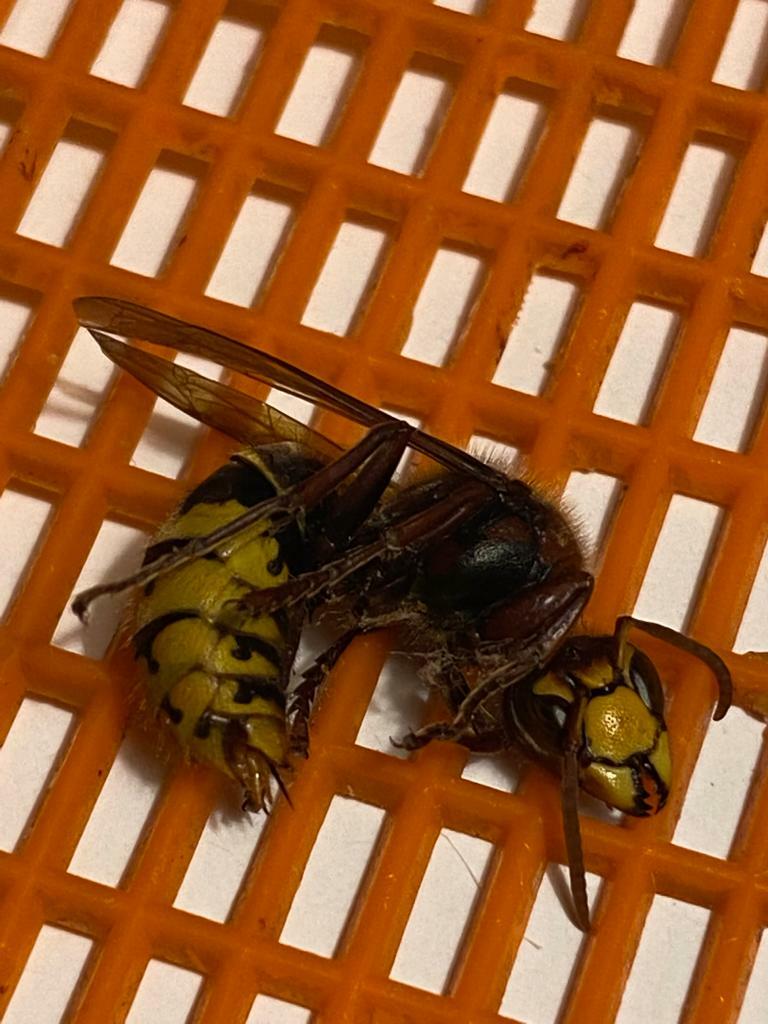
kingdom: Animalia
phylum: Arthropoda
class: Insecta
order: Hymenoptera
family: Vespidae
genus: Vespa
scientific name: Vespa crabro
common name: Hornet
